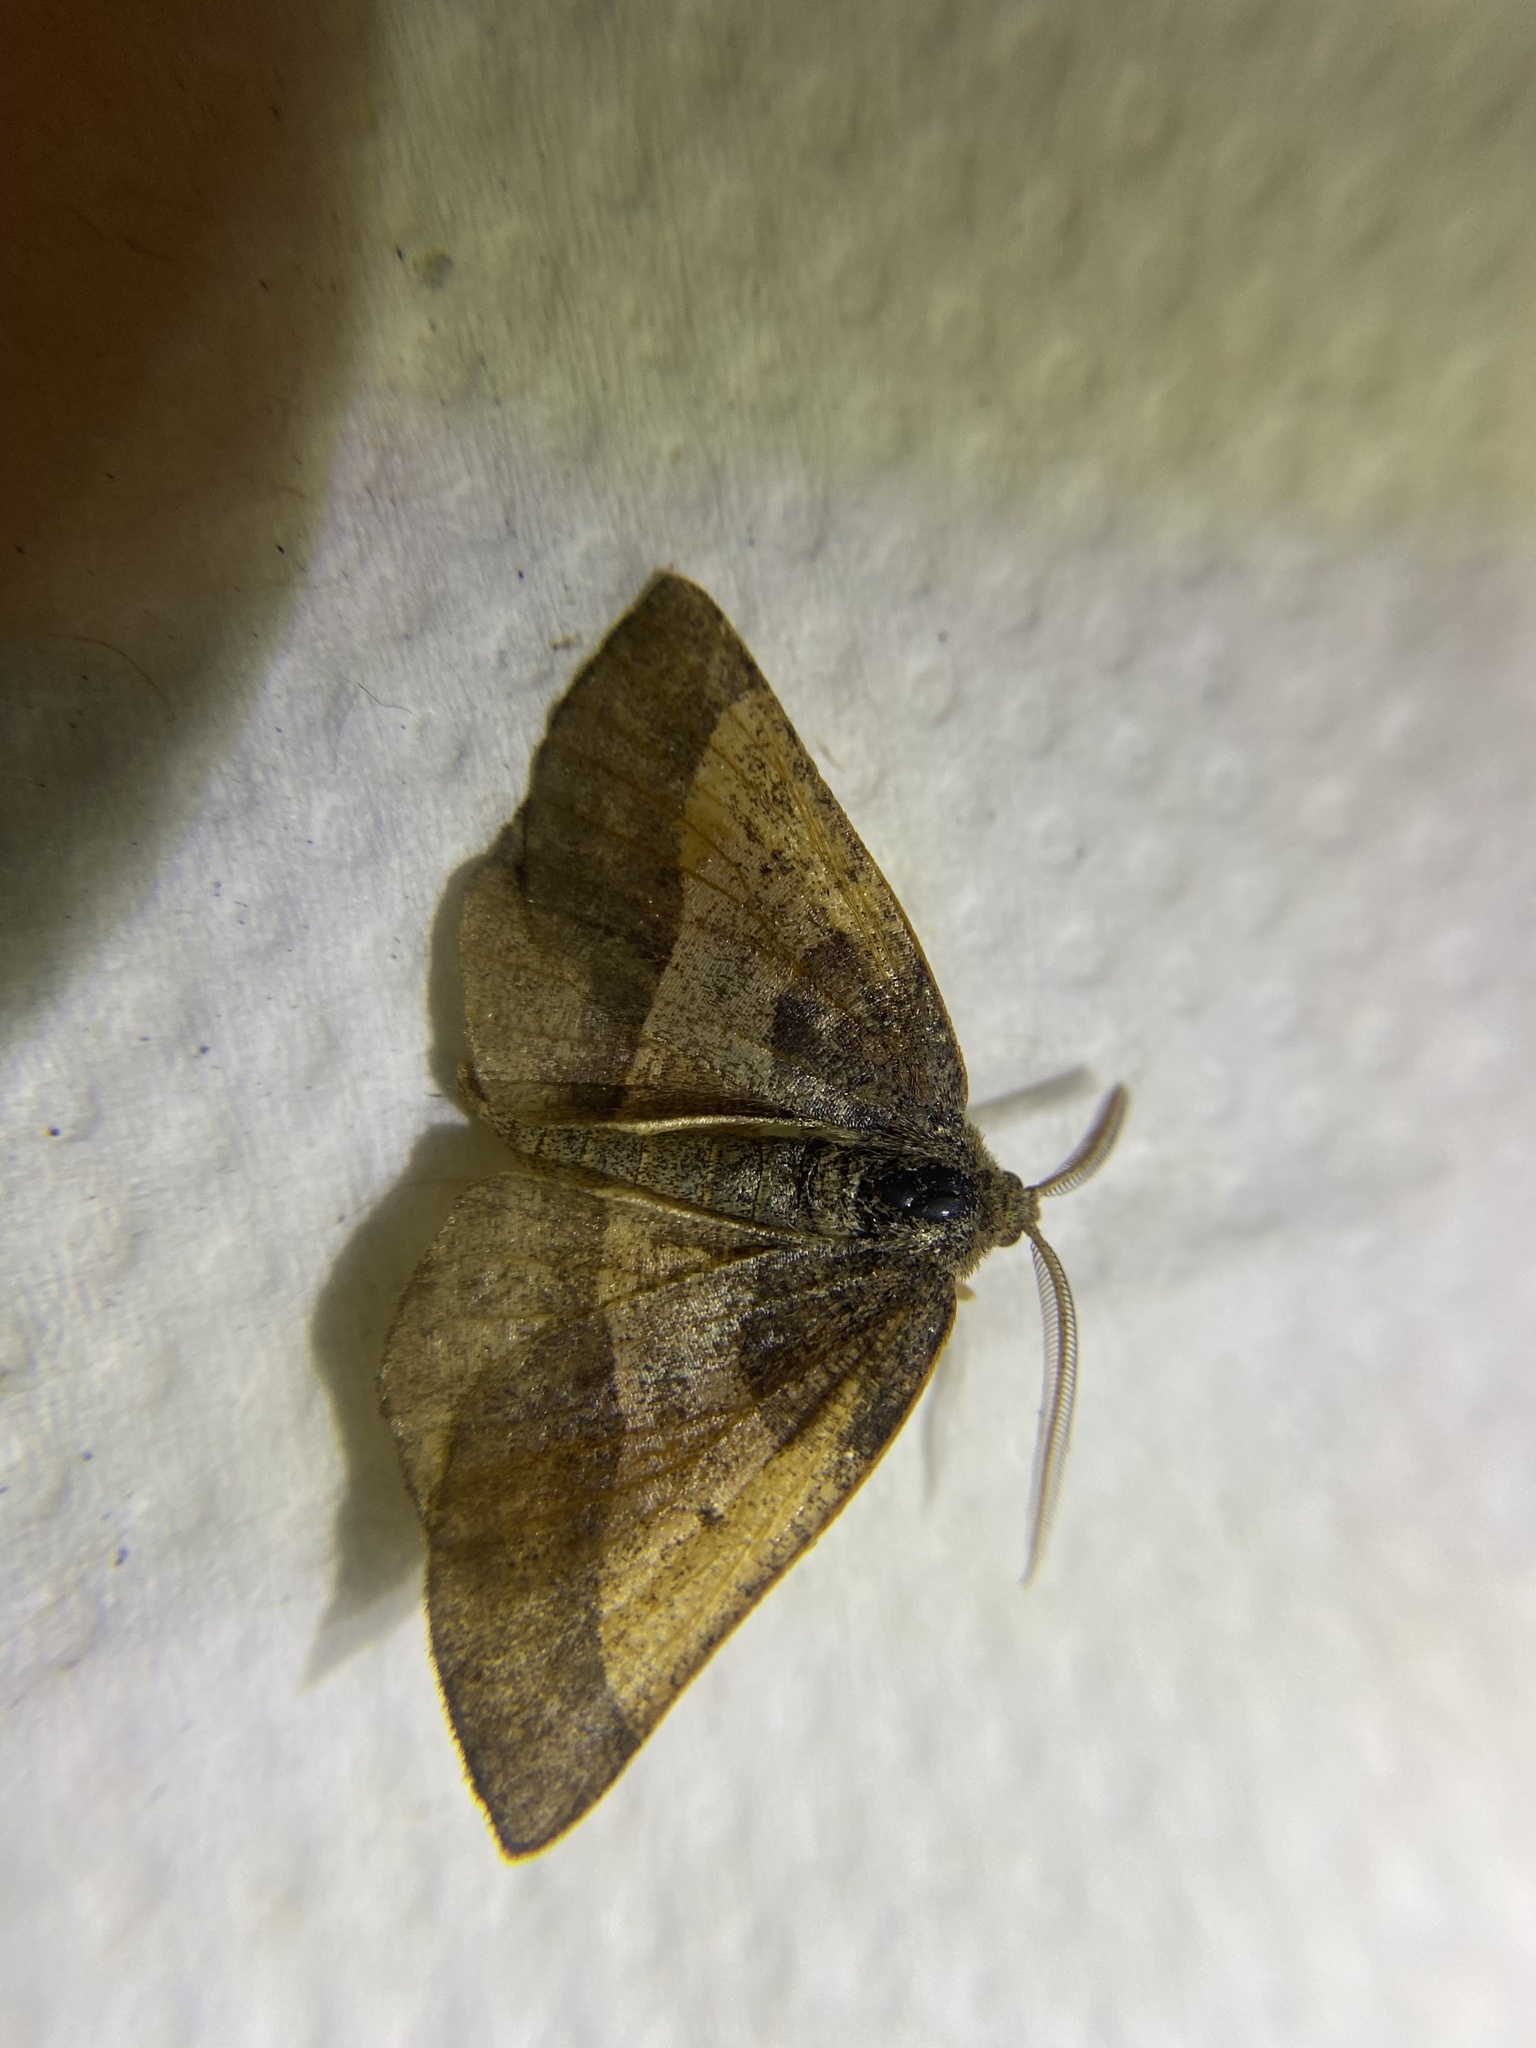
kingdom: Animalia
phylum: Arthropoda
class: Insecta
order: Lepidoptera
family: Geometridae
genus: Metarranthis
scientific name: Metarranthis obfirmaria
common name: Yellow-washed metarranthis
